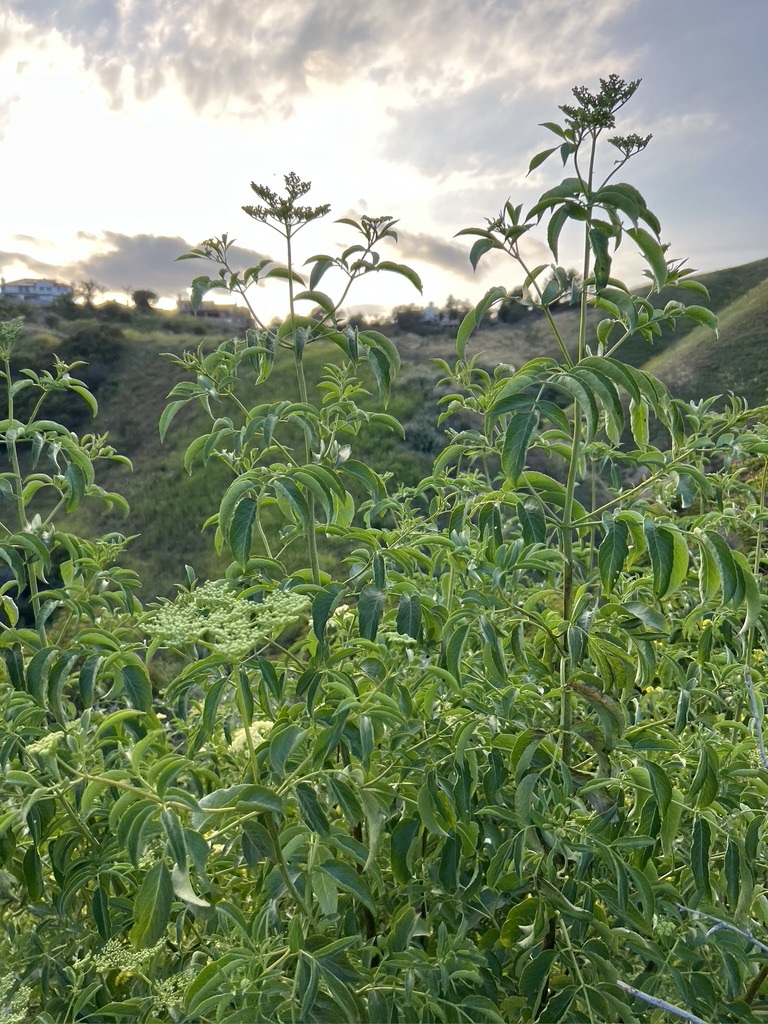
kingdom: Plantae
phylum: Tracheophyta
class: Magnoliopsida
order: Dipsacales
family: Viburnaceae
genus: Sambucus
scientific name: Sambucus cerulea
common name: Blue elder
